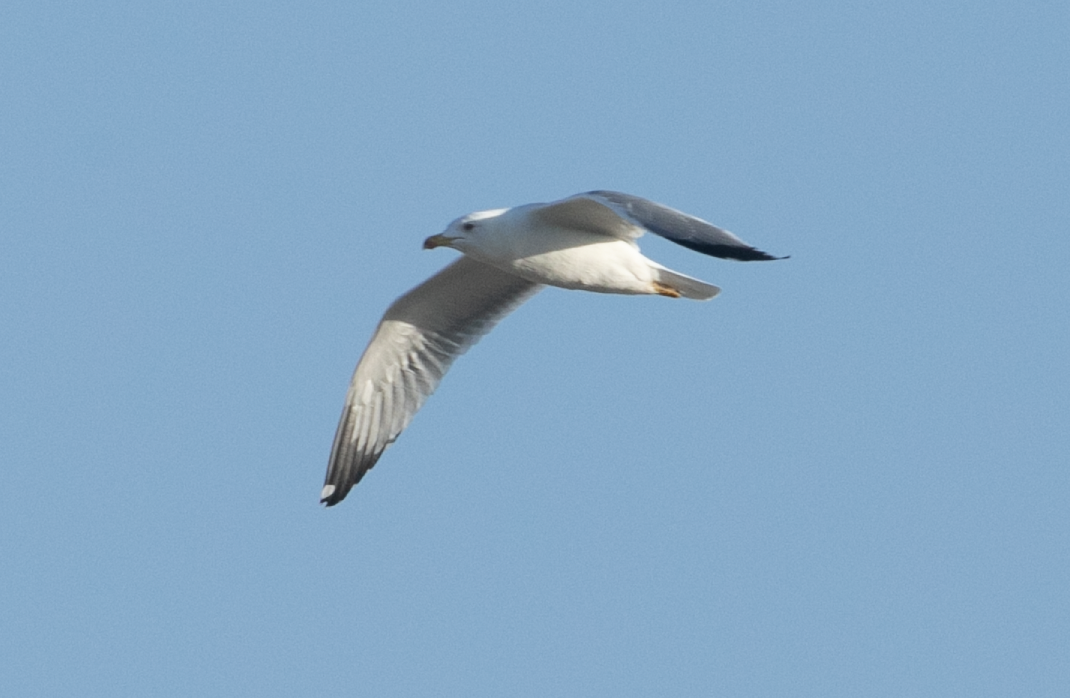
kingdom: Animalia
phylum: Chordata
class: Aves
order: Charadriiformes
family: Laridae
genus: Larus
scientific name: Larus michahellis
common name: Yellow-legged gull
